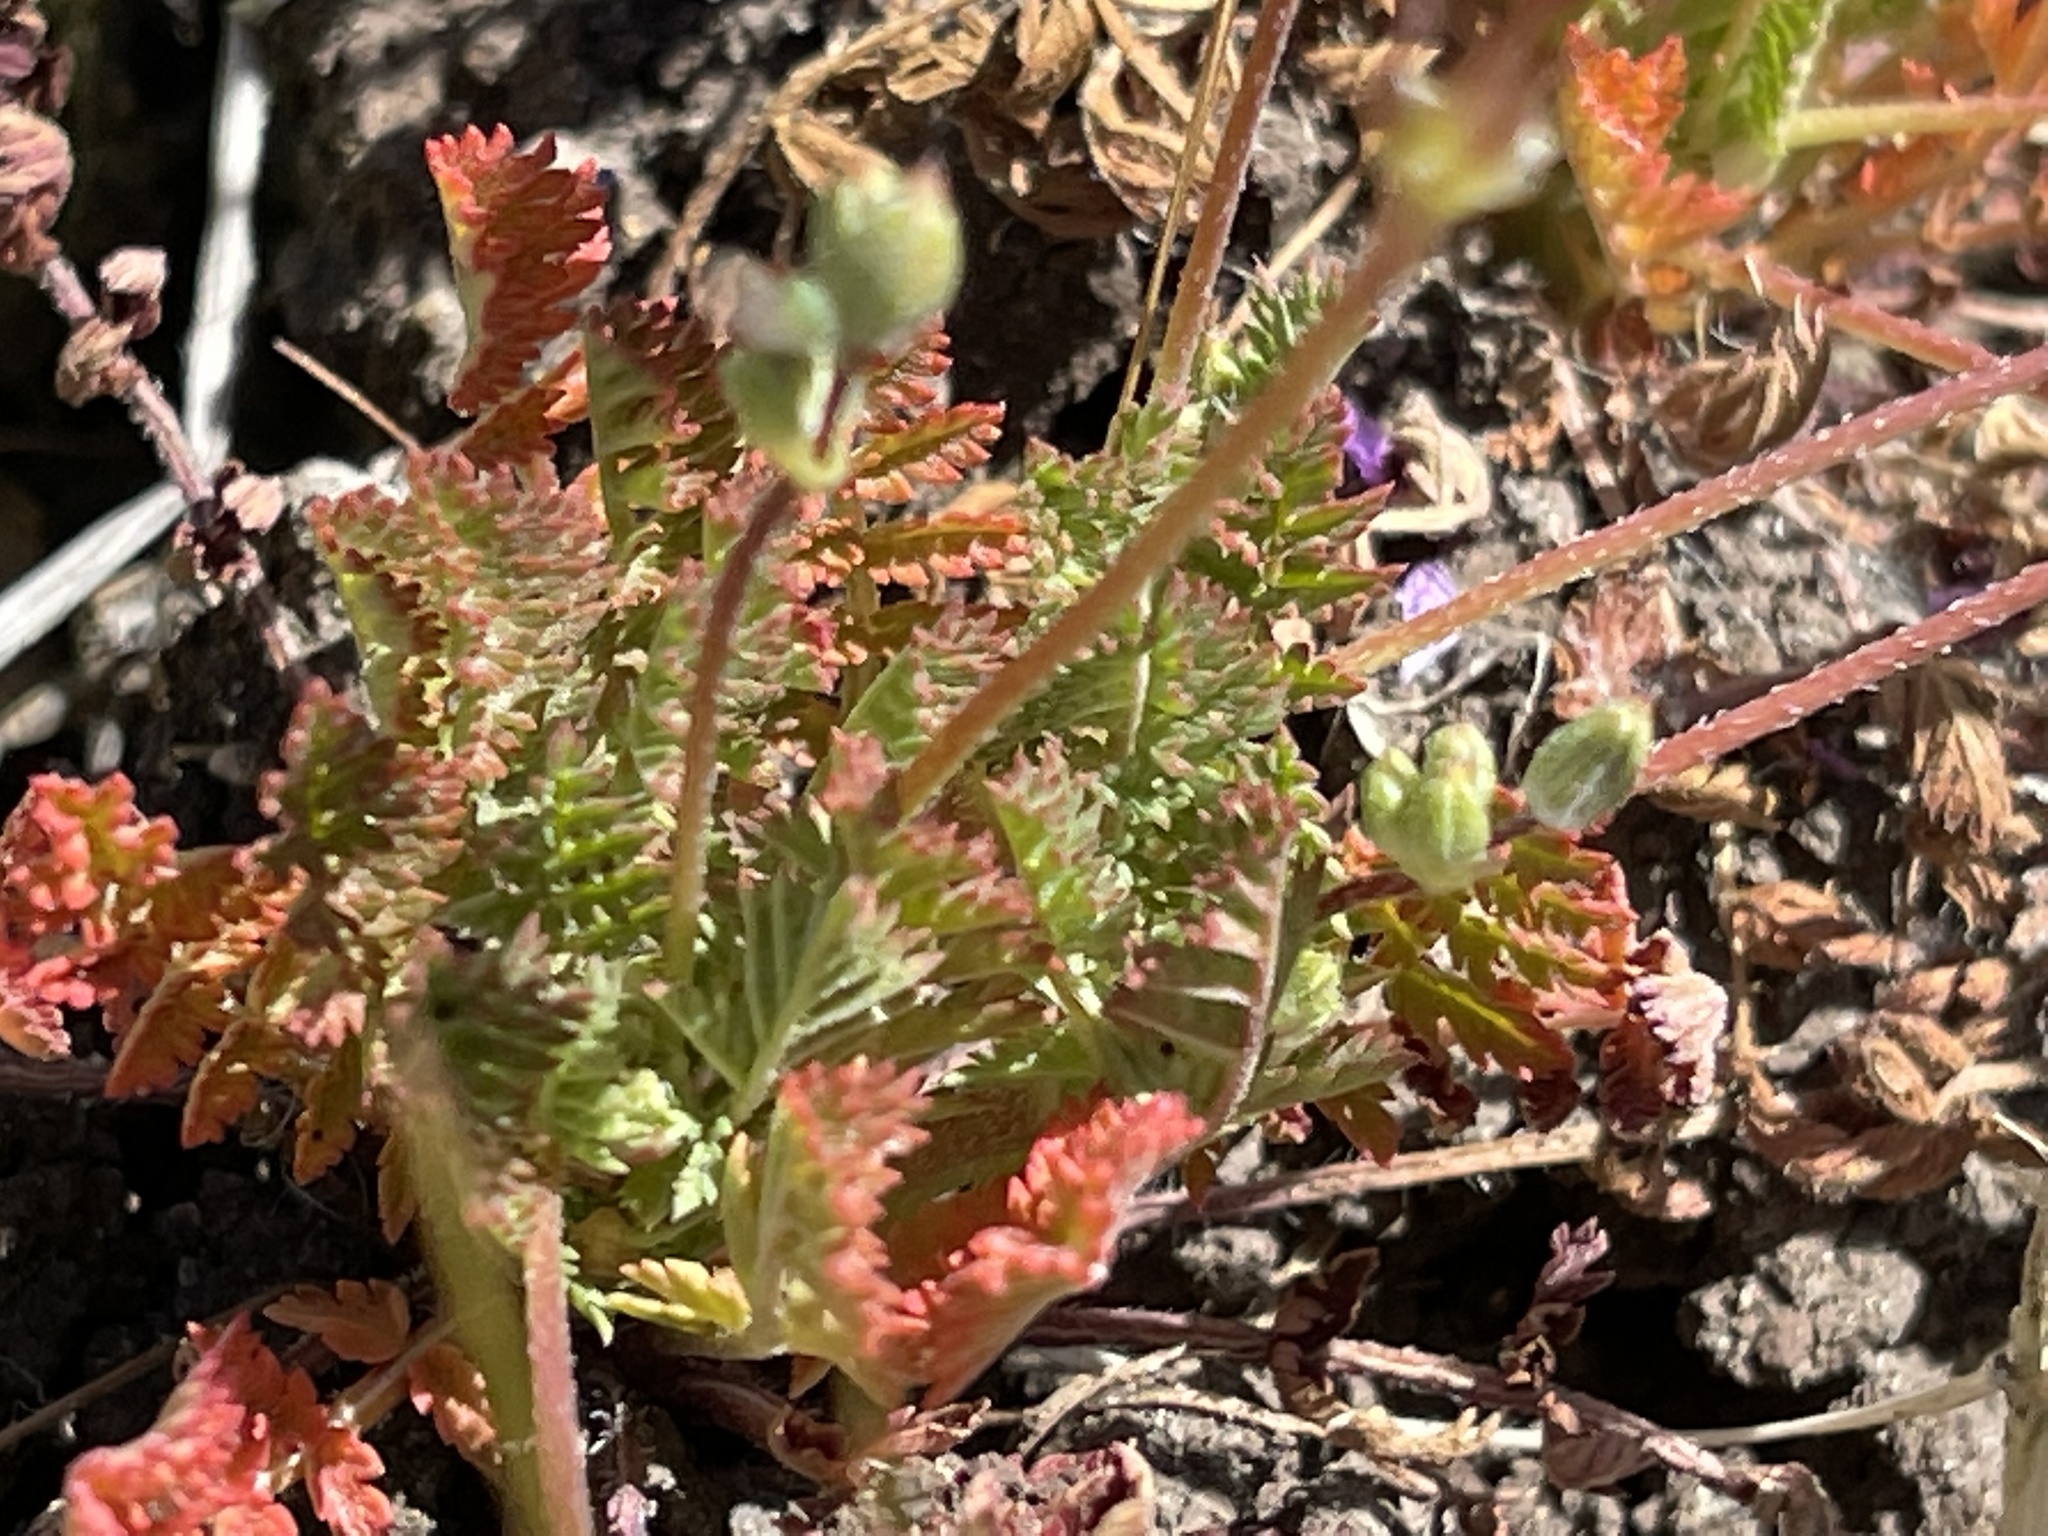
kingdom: Plantae
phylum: Tracheophyta
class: Magnoliopsida
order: Geraniales
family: Geraniaceae
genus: Erodium
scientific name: Erodium cicutarium
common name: Common stork's-bill
